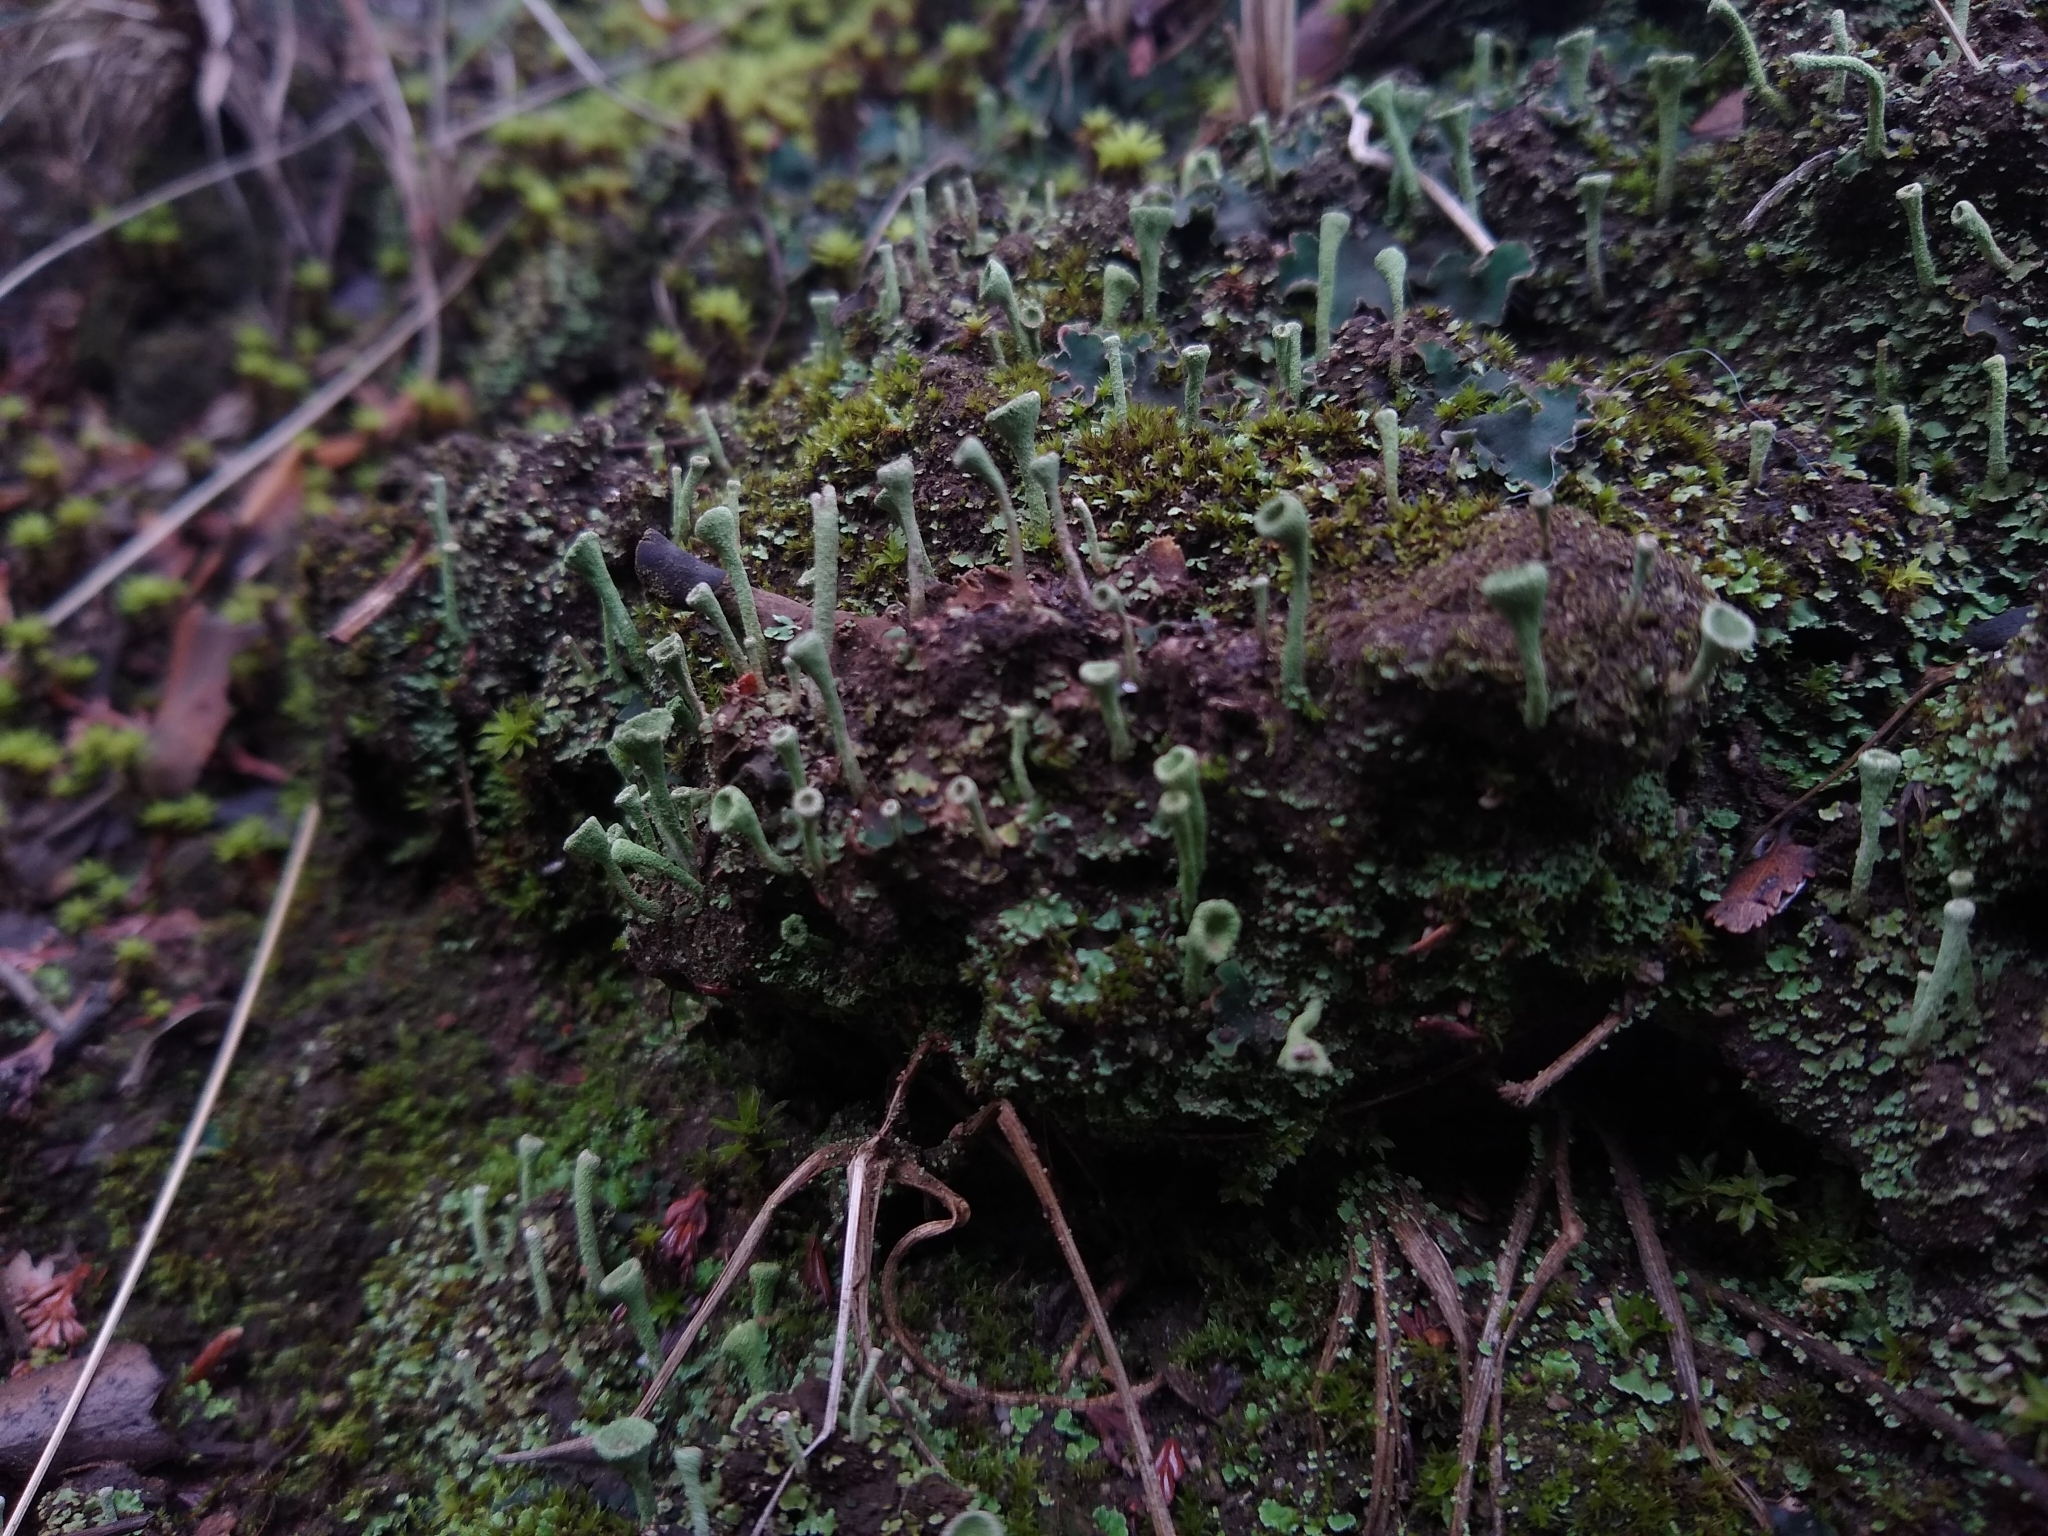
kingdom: Fungi
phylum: Ascomycota
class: Lecanoromycetes
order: Lecanorales
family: Cladoniaceae
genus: Cladonia
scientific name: Cladonia fimbriata
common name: Powdered trumpet lichen
